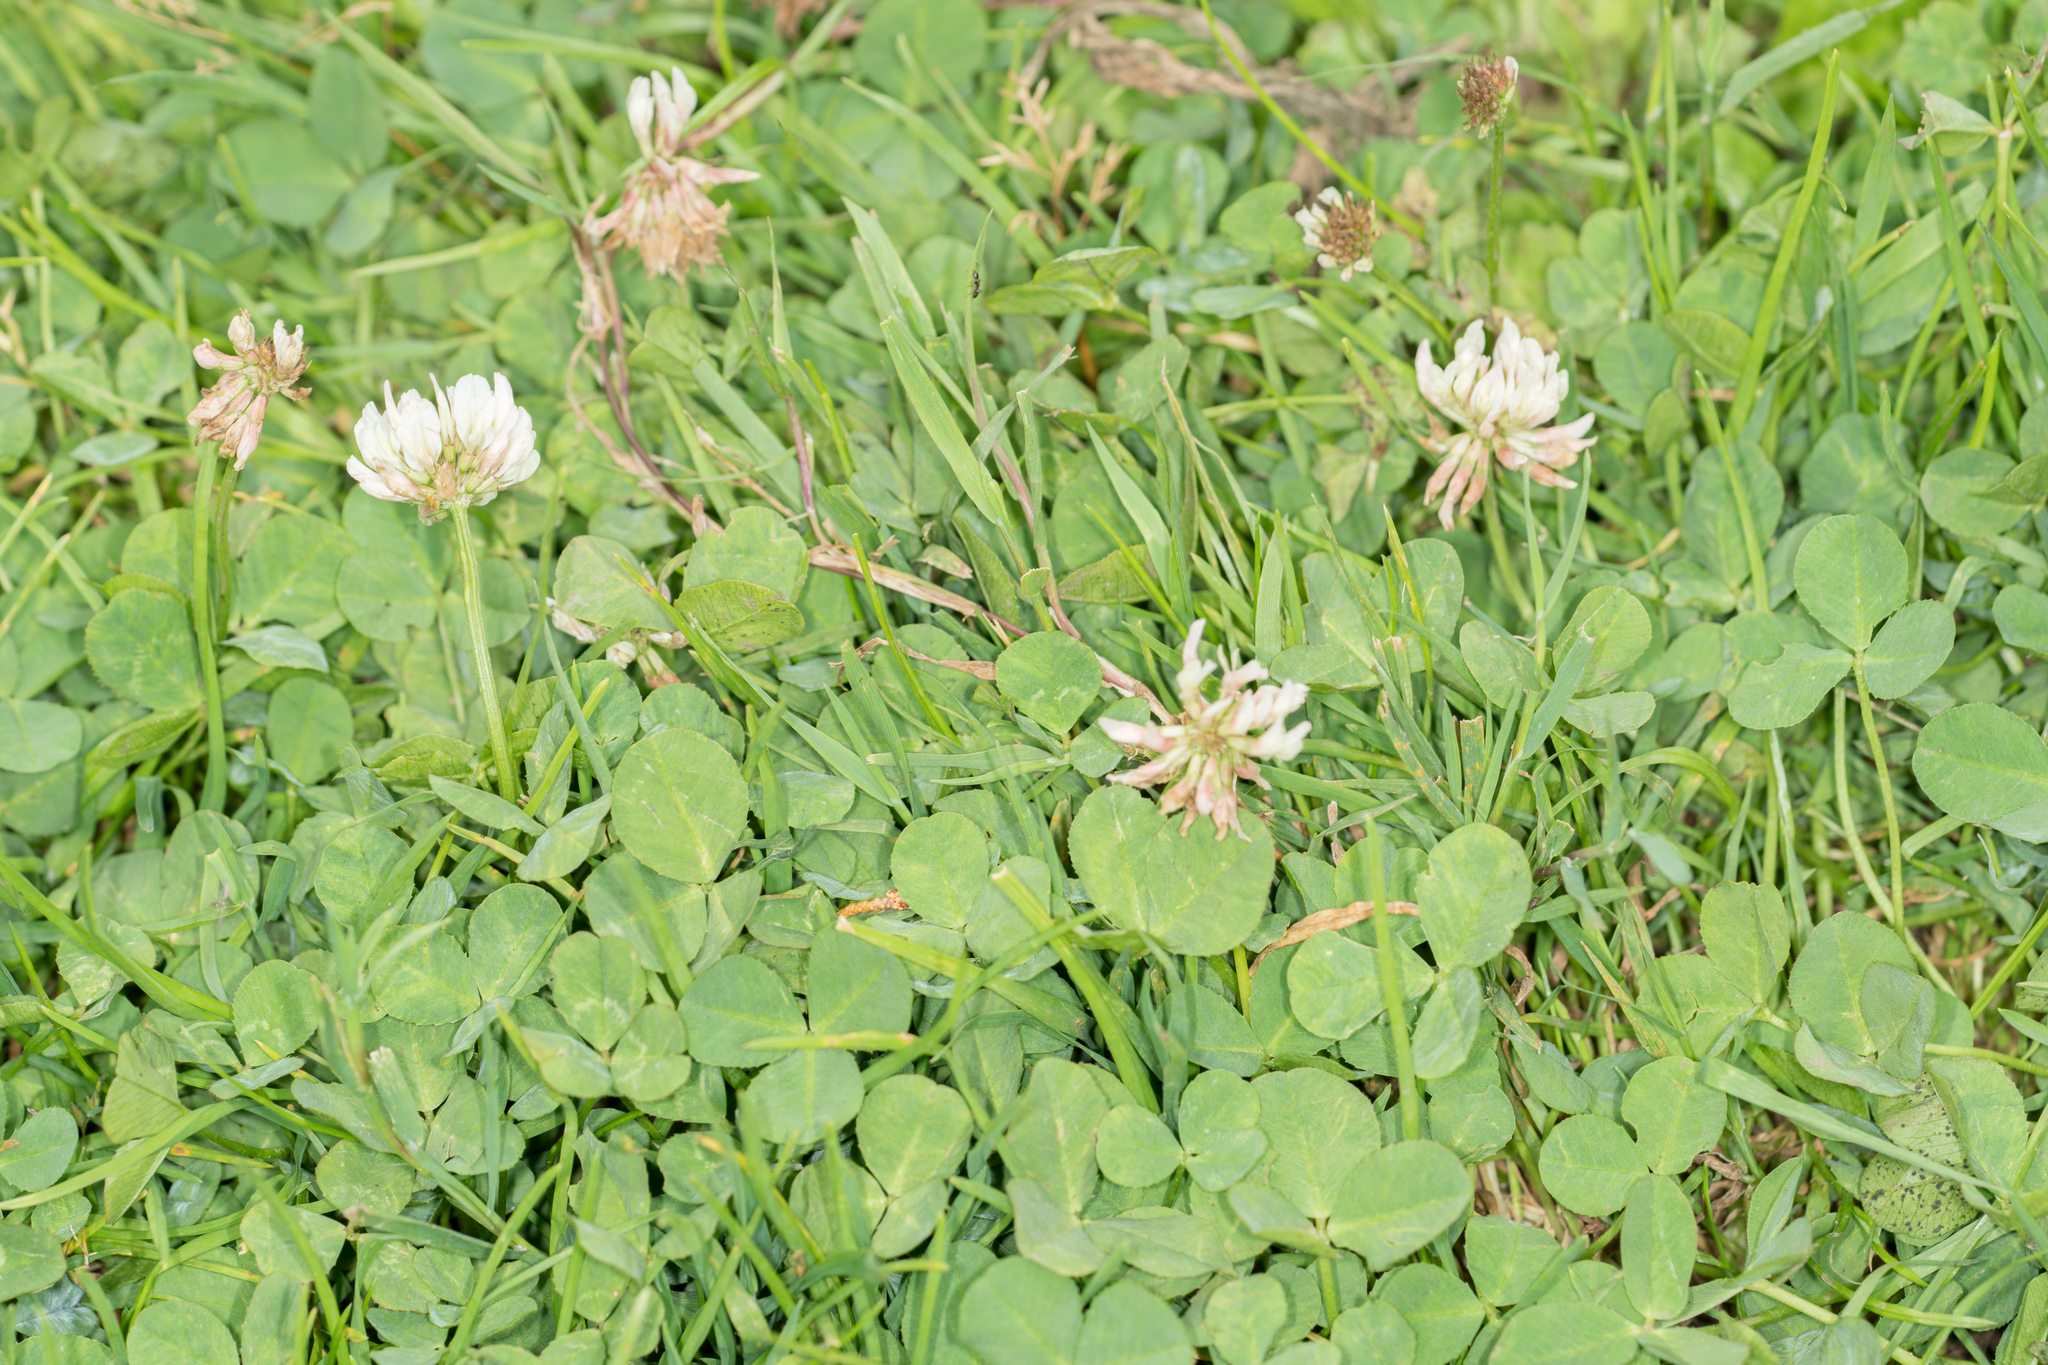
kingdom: Plantae
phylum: Tracheophyta
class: Magnoliopsida
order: Fabales
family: Fabaceae
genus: Trifolium
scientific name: Trifolium repens
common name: White clover
